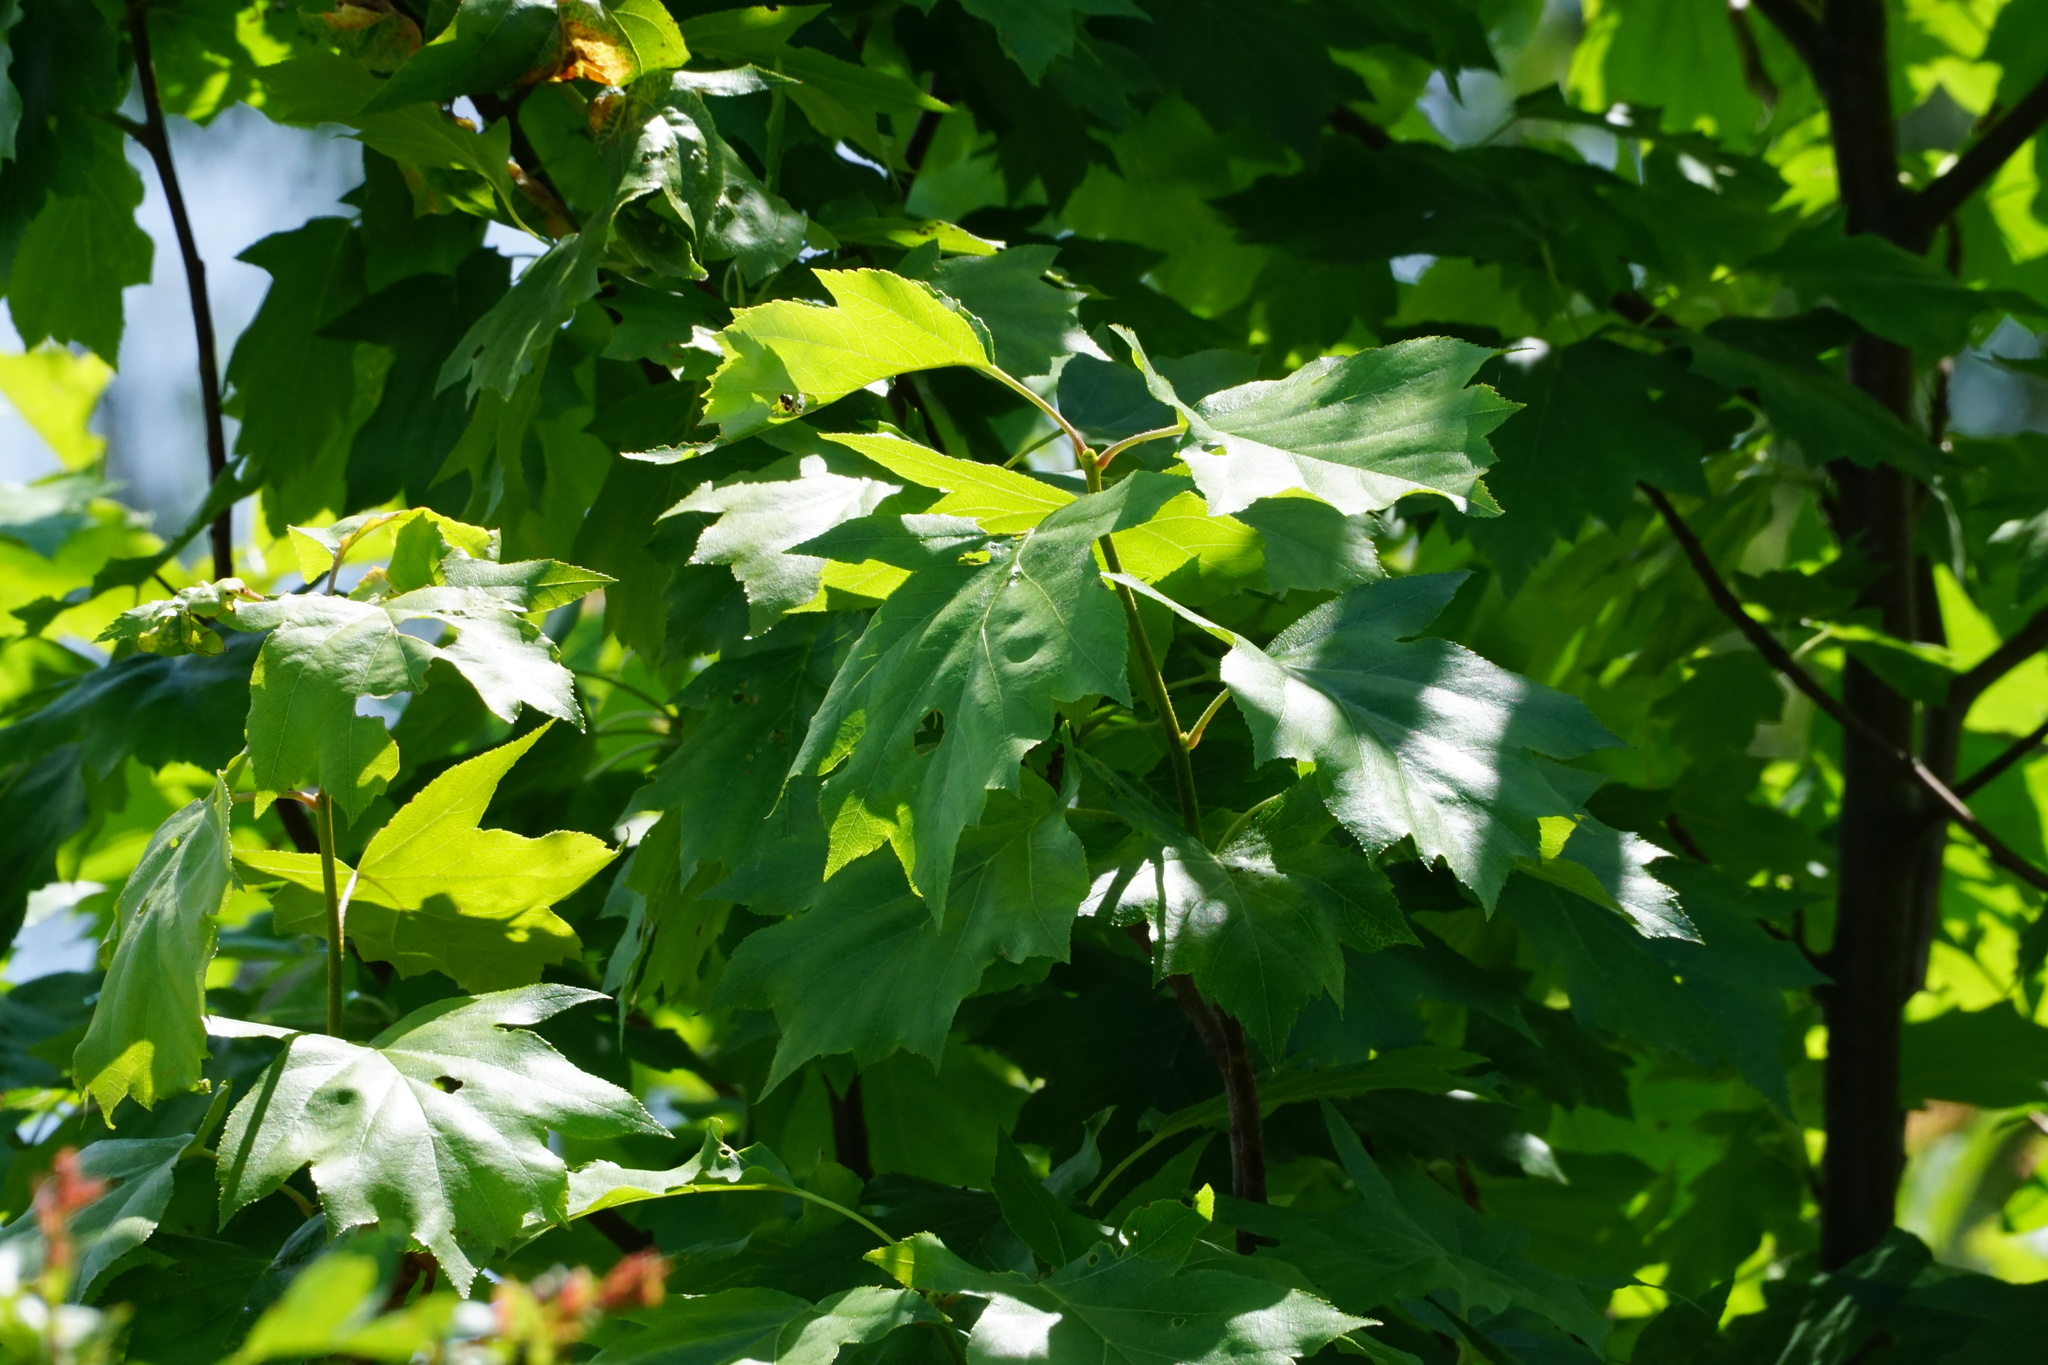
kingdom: Plantae
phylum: Tracheophyta
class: Magnoliopsida
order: Rosales
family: Rosaceae
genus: Torminalis
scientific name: Torminalis glaberrima
